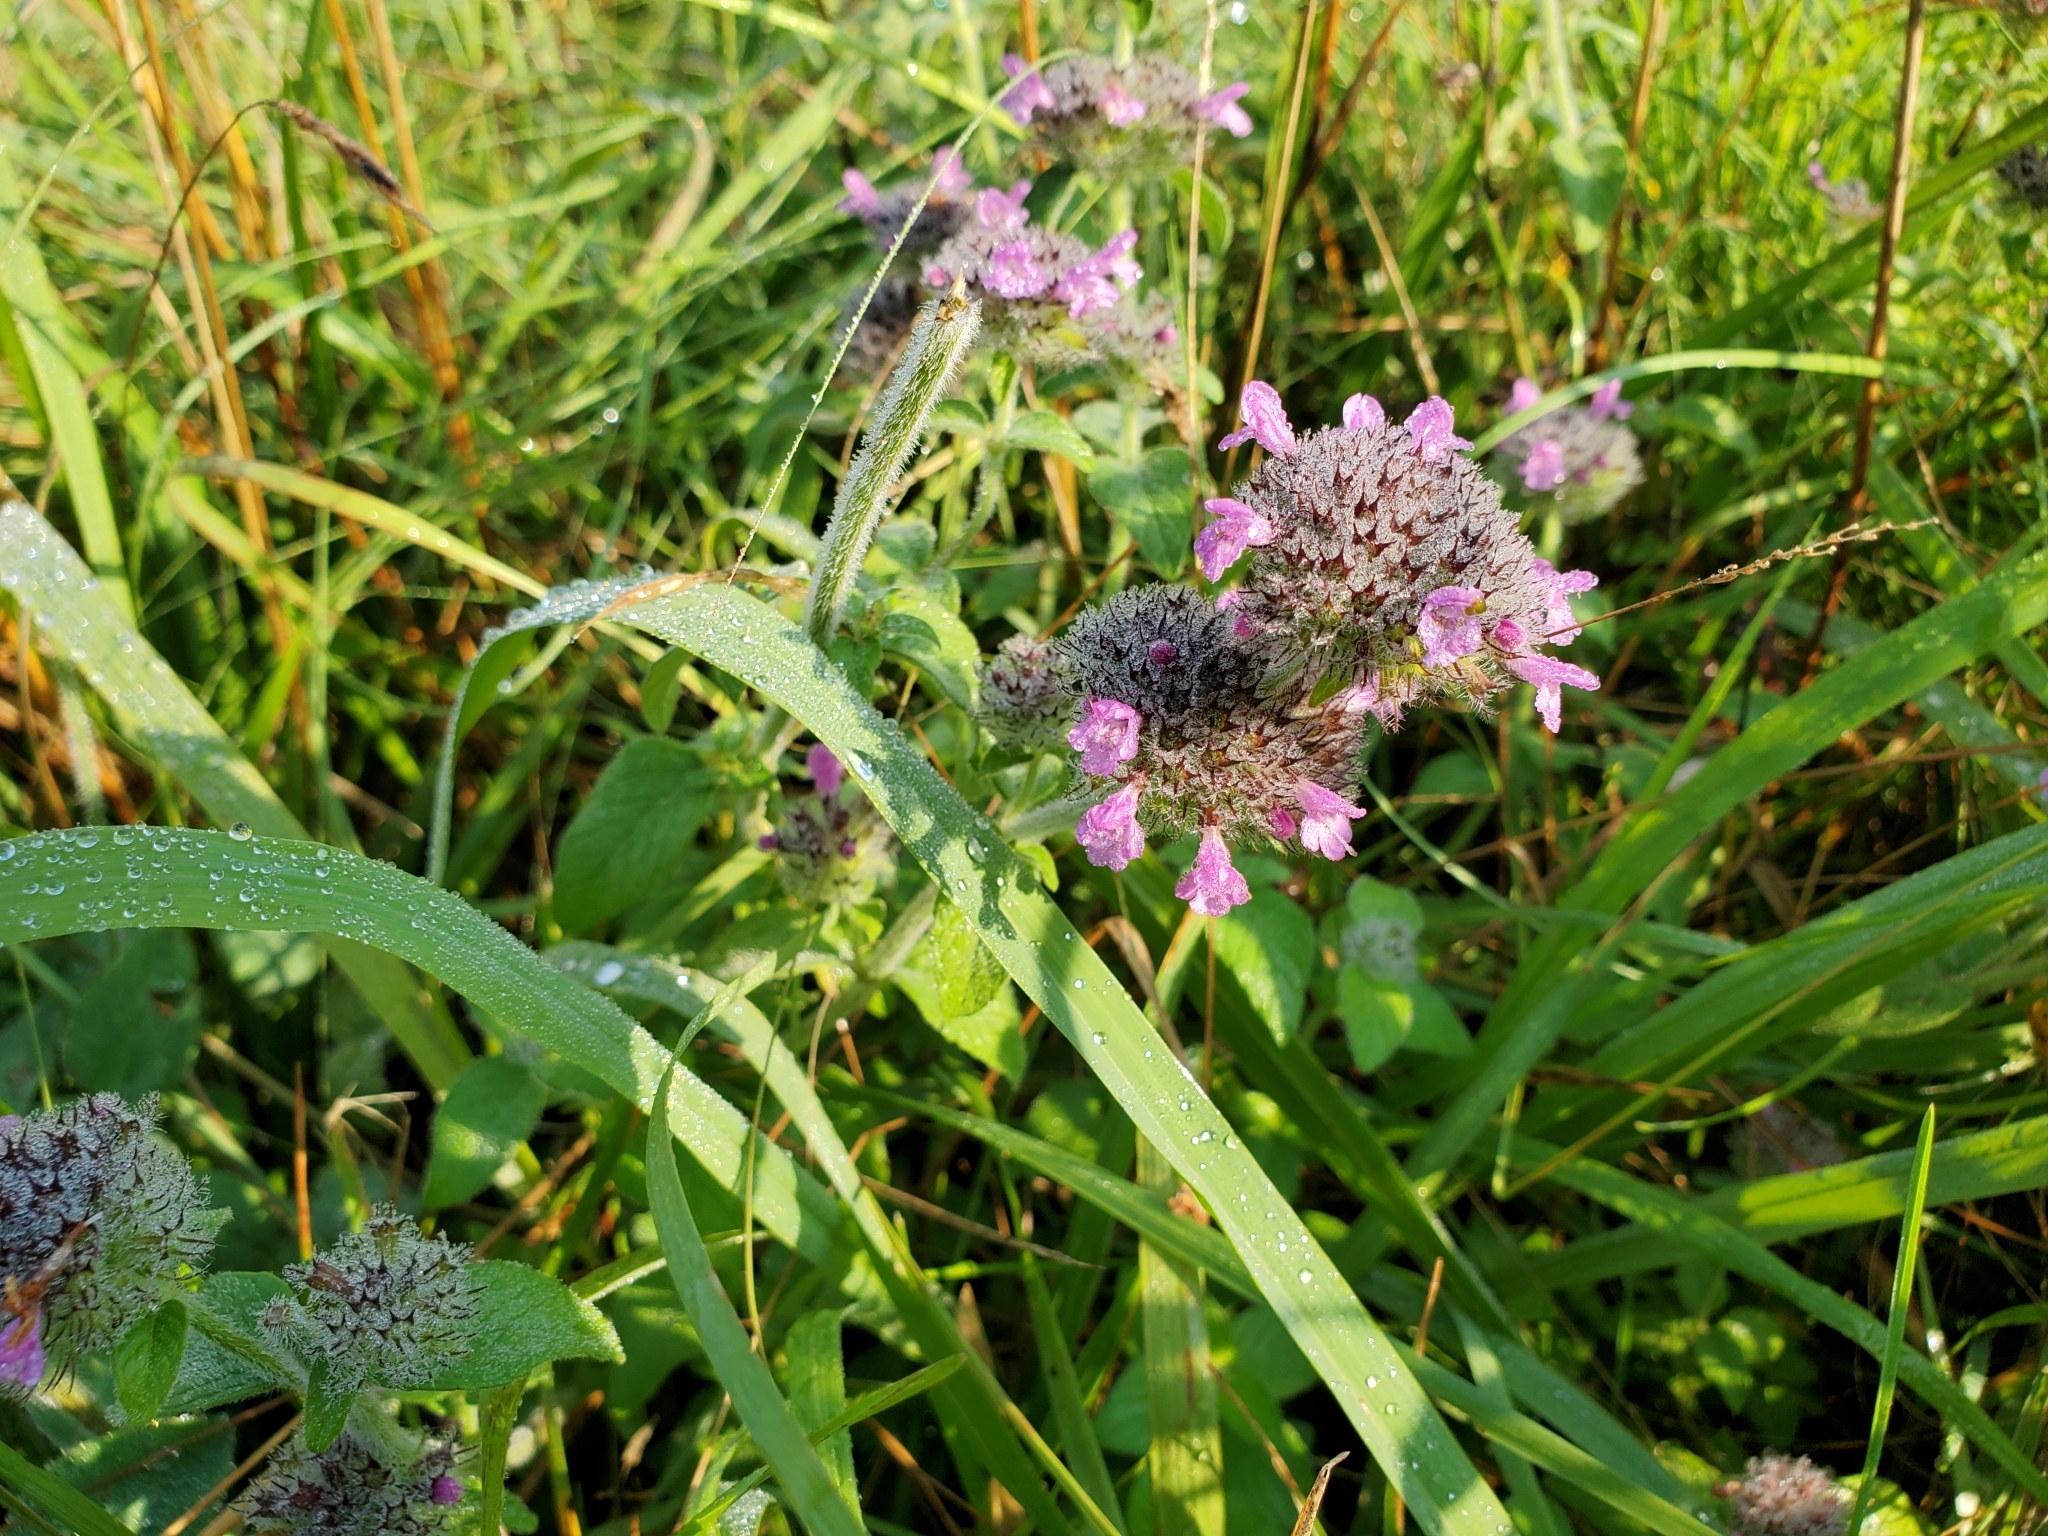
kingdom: Plantae
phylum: Tracheophyta
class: Magnoliopsida
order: Lamiales
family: Lamiaceae
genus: Clinopodium
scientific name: Clinopodium vulgare
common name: Wild basil
